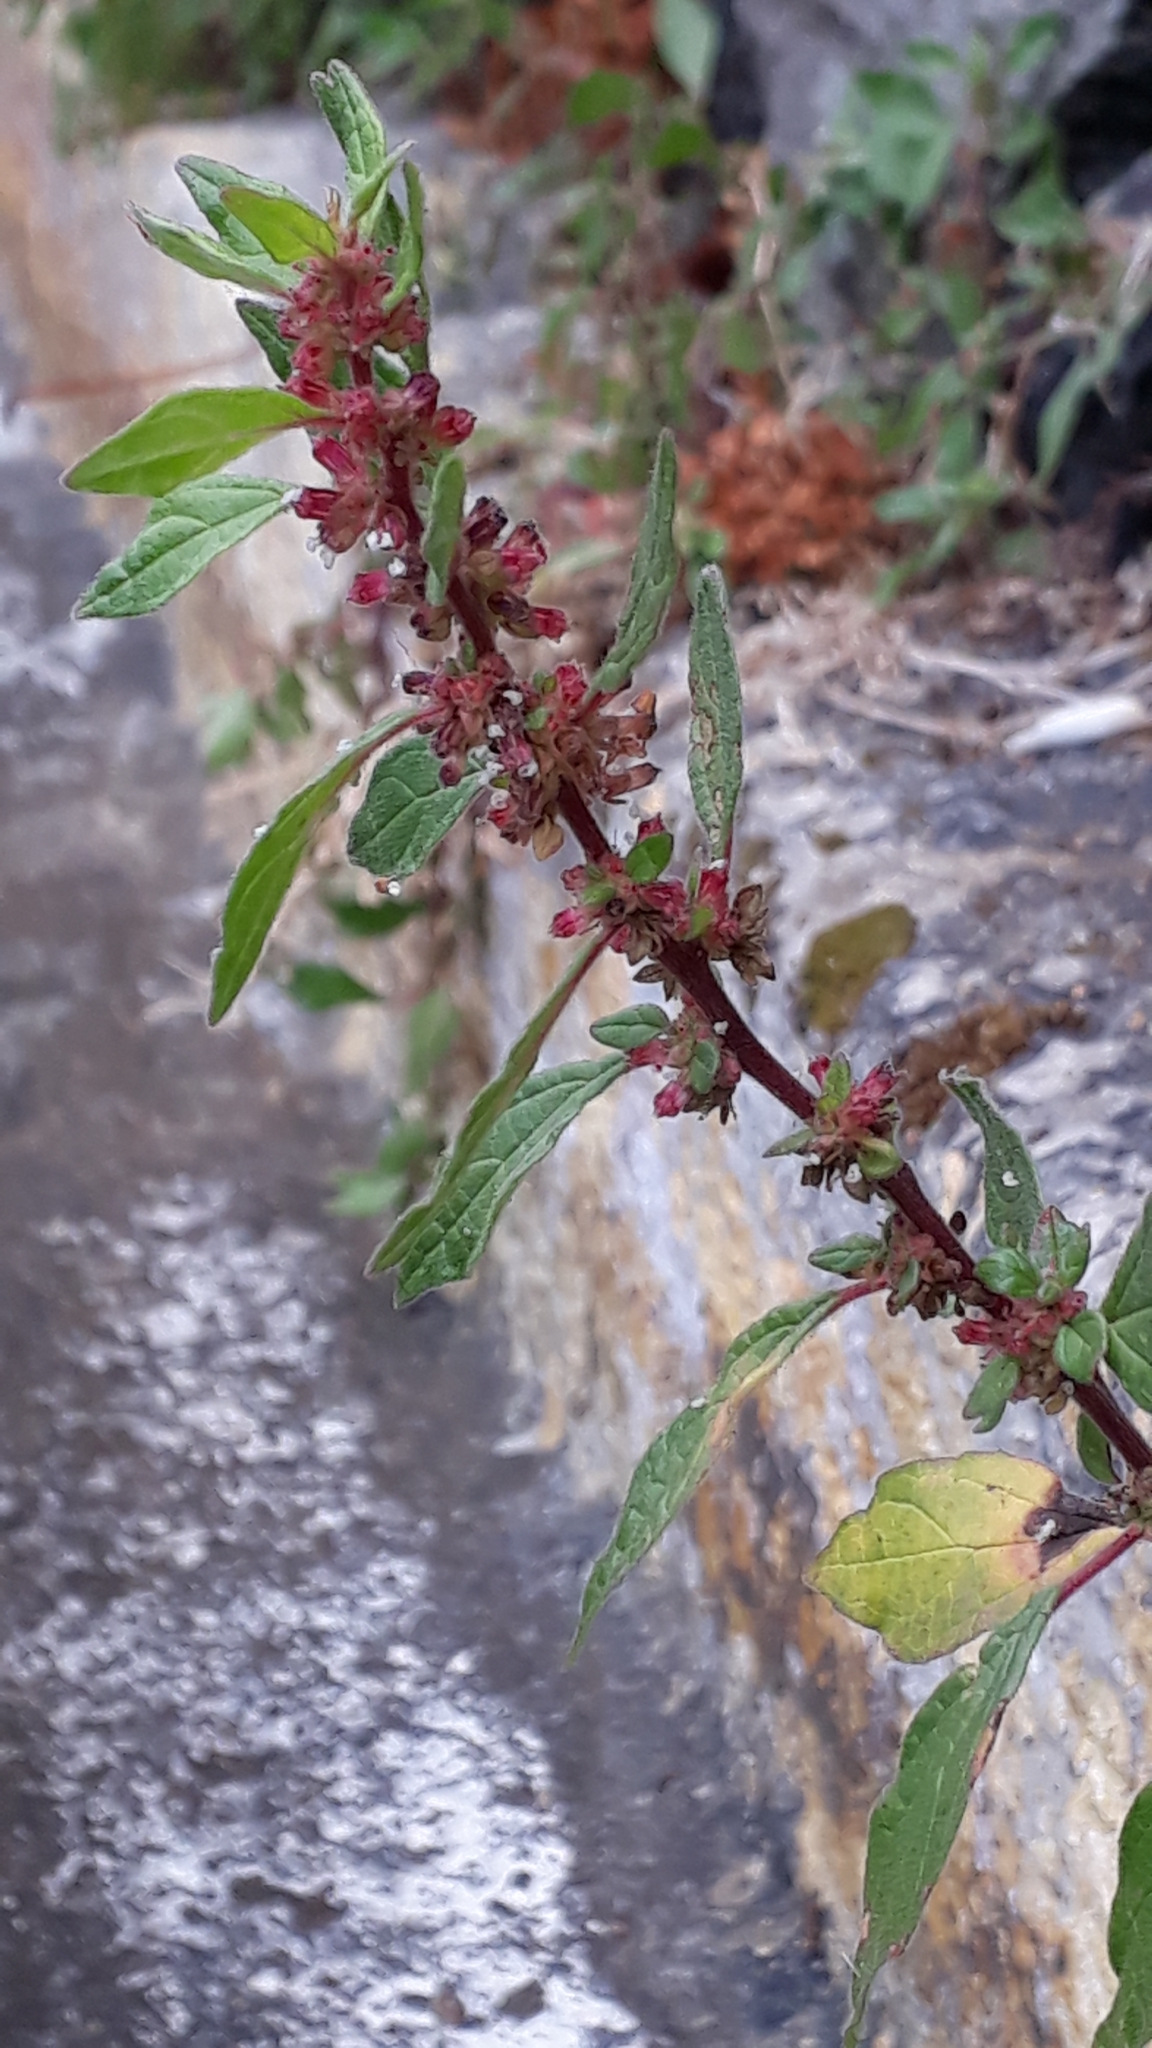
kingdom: Plantae
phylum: Tracheophyta
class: Magnoliopsida
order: Rosales
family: Urticaceae
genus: Parietaria
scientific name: Parietaria judaica
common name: Pellitory-of-the-wall
